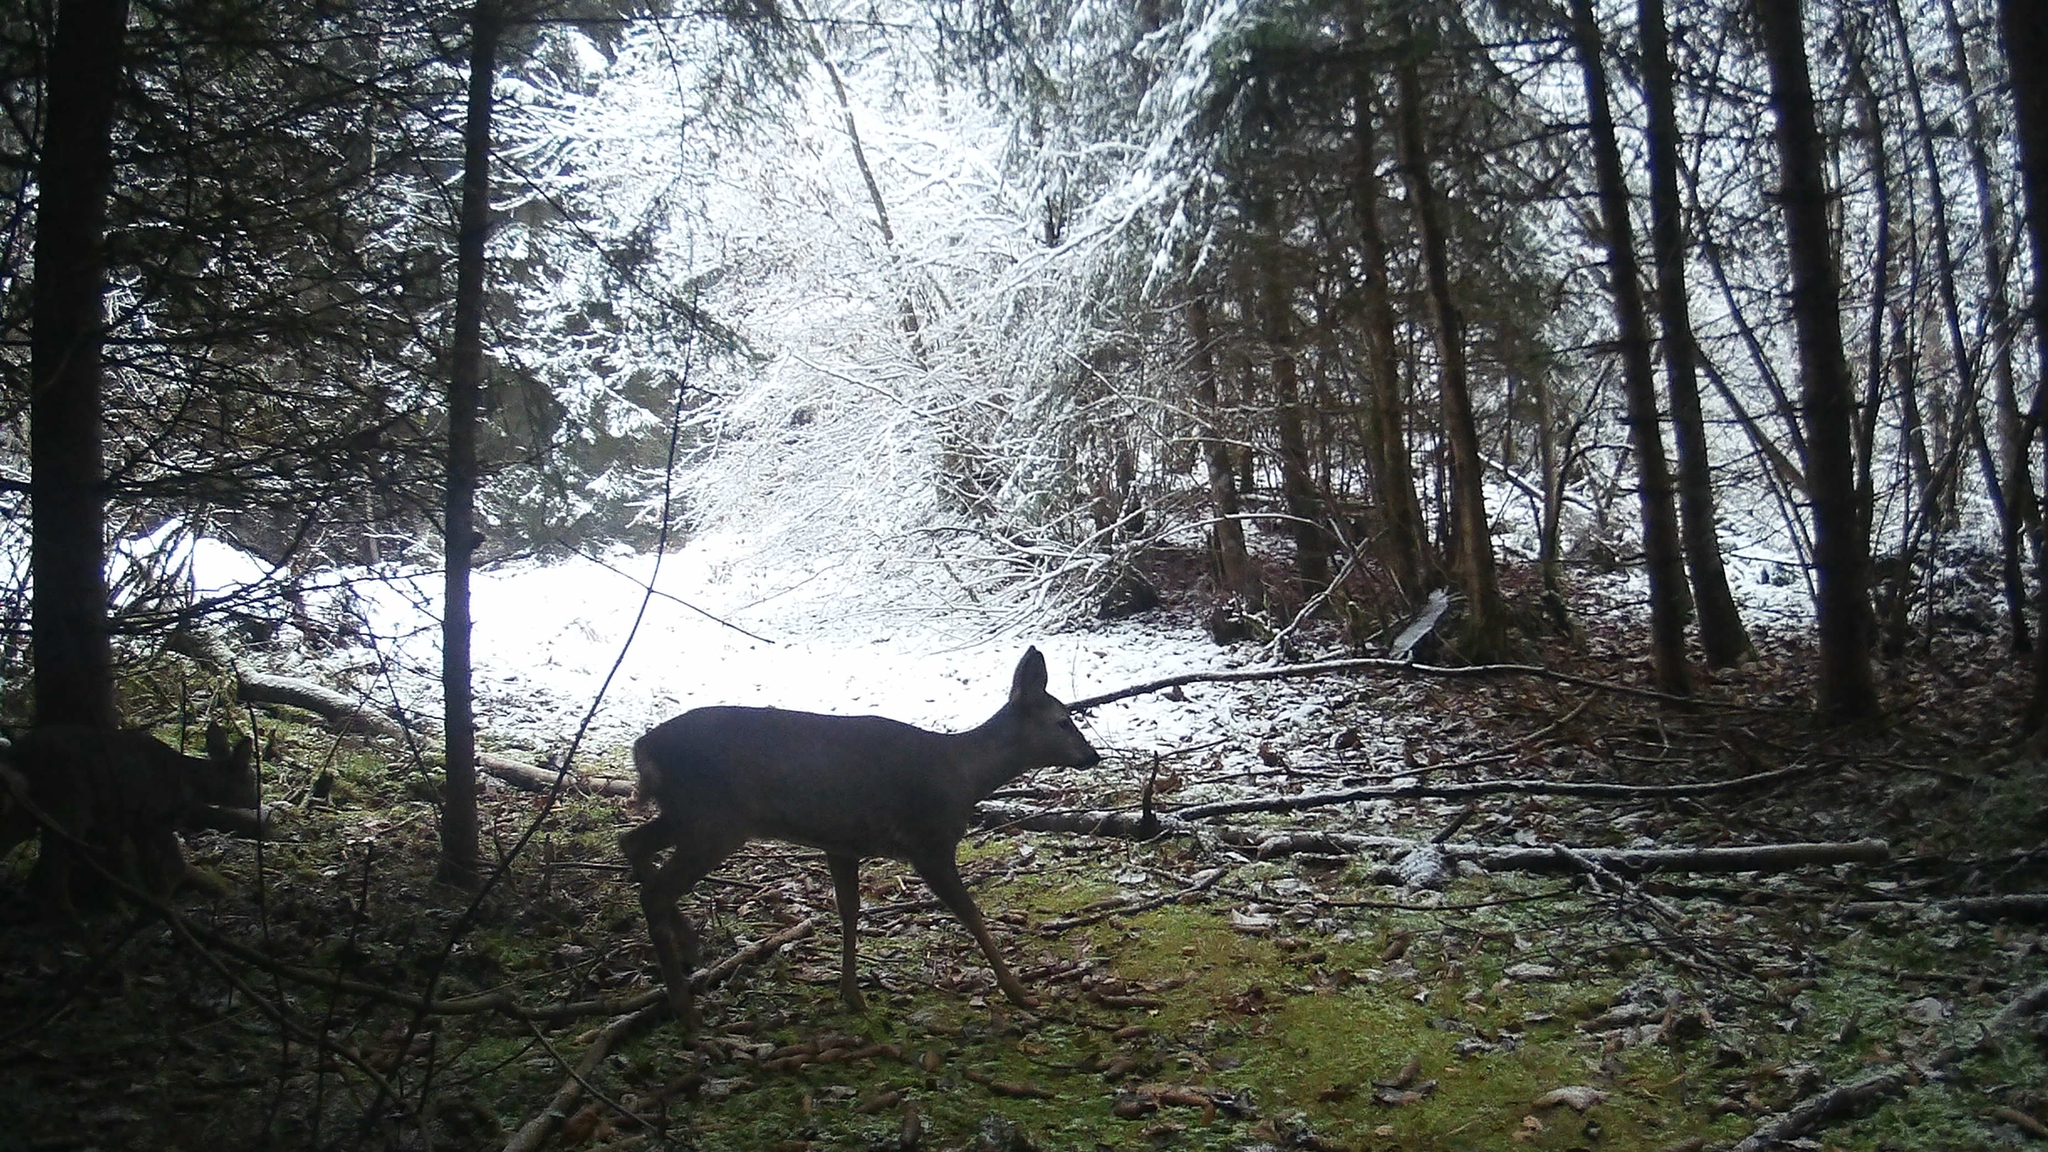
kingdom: Animalia
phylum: Chordata
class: Mammalia
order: Artiodactyla
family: Cervidae
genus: Capreolus
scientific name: Capreolus capreolus
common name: Western roe deer
